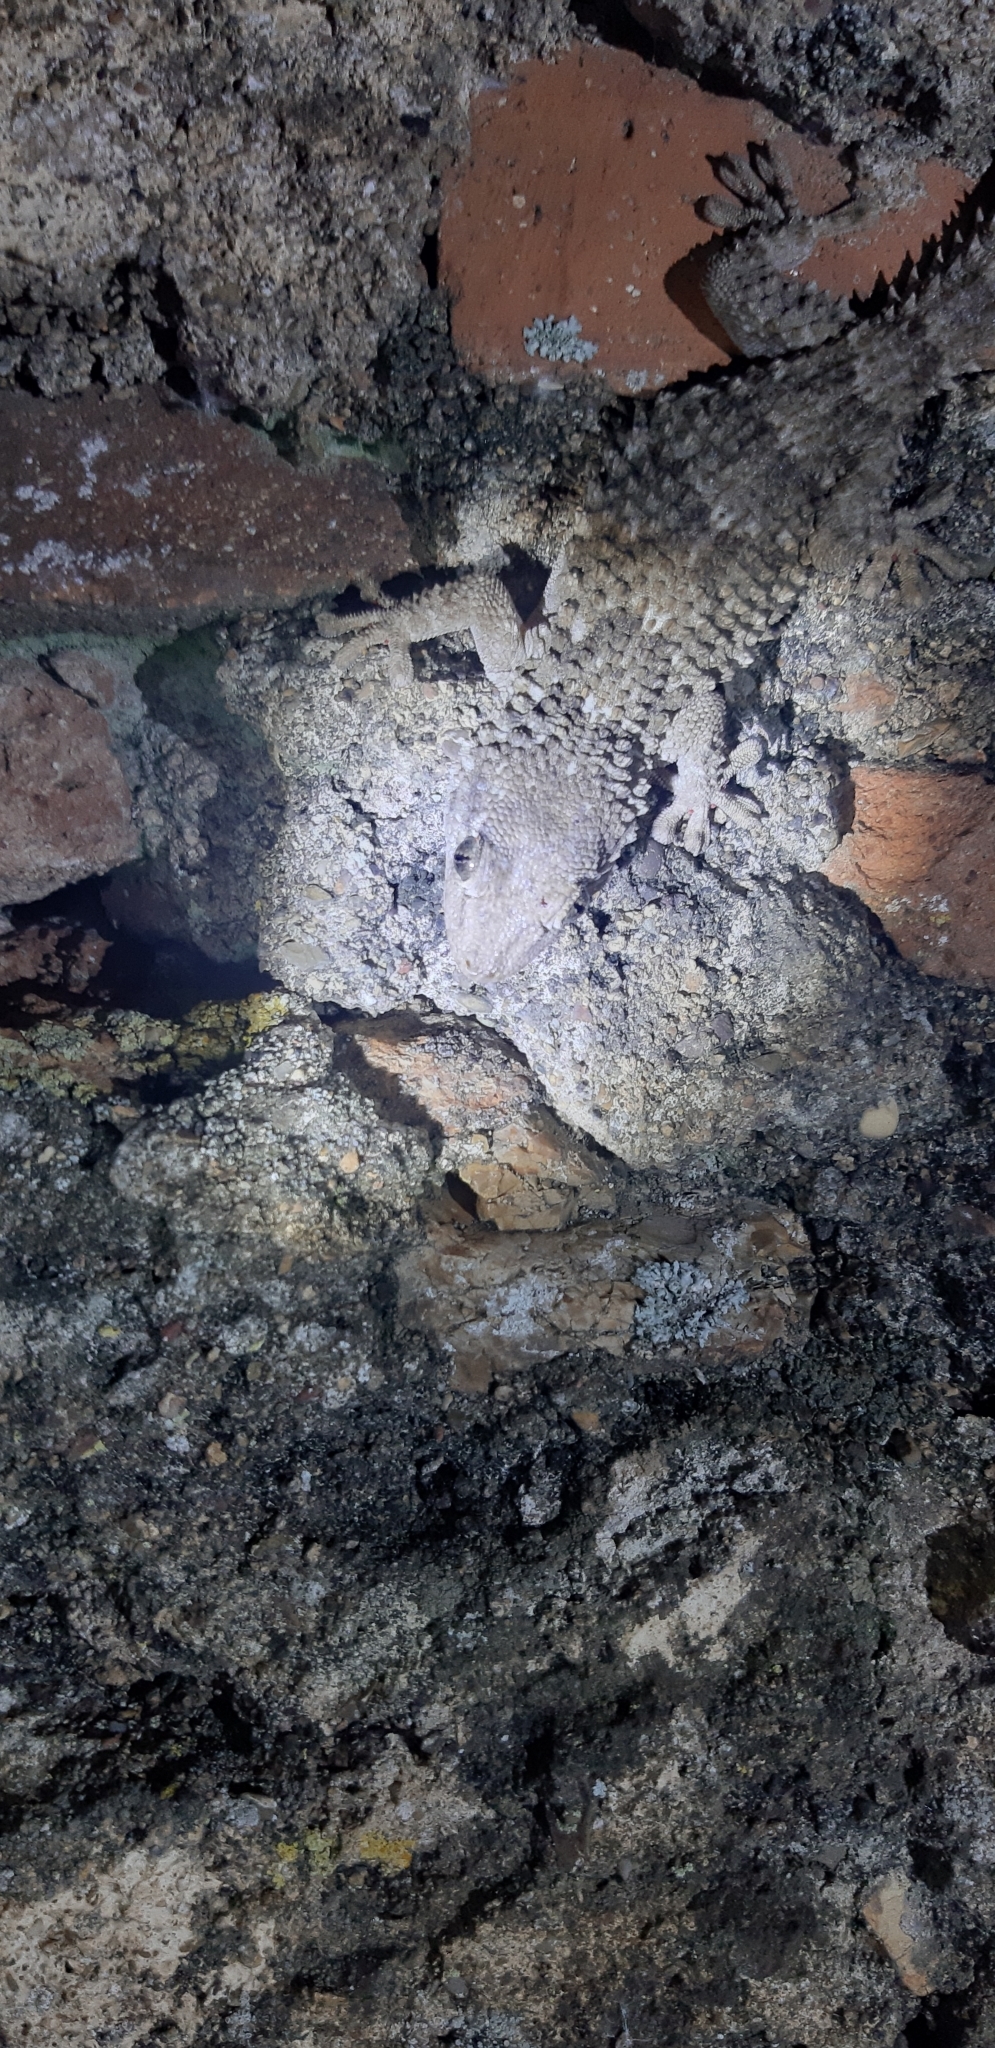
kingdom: Animalia
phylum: Chordata
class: Squamata
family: Phyllodactylidae
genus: Tarentola
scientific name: Tarentola mauritanica
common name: Moorish gecko
